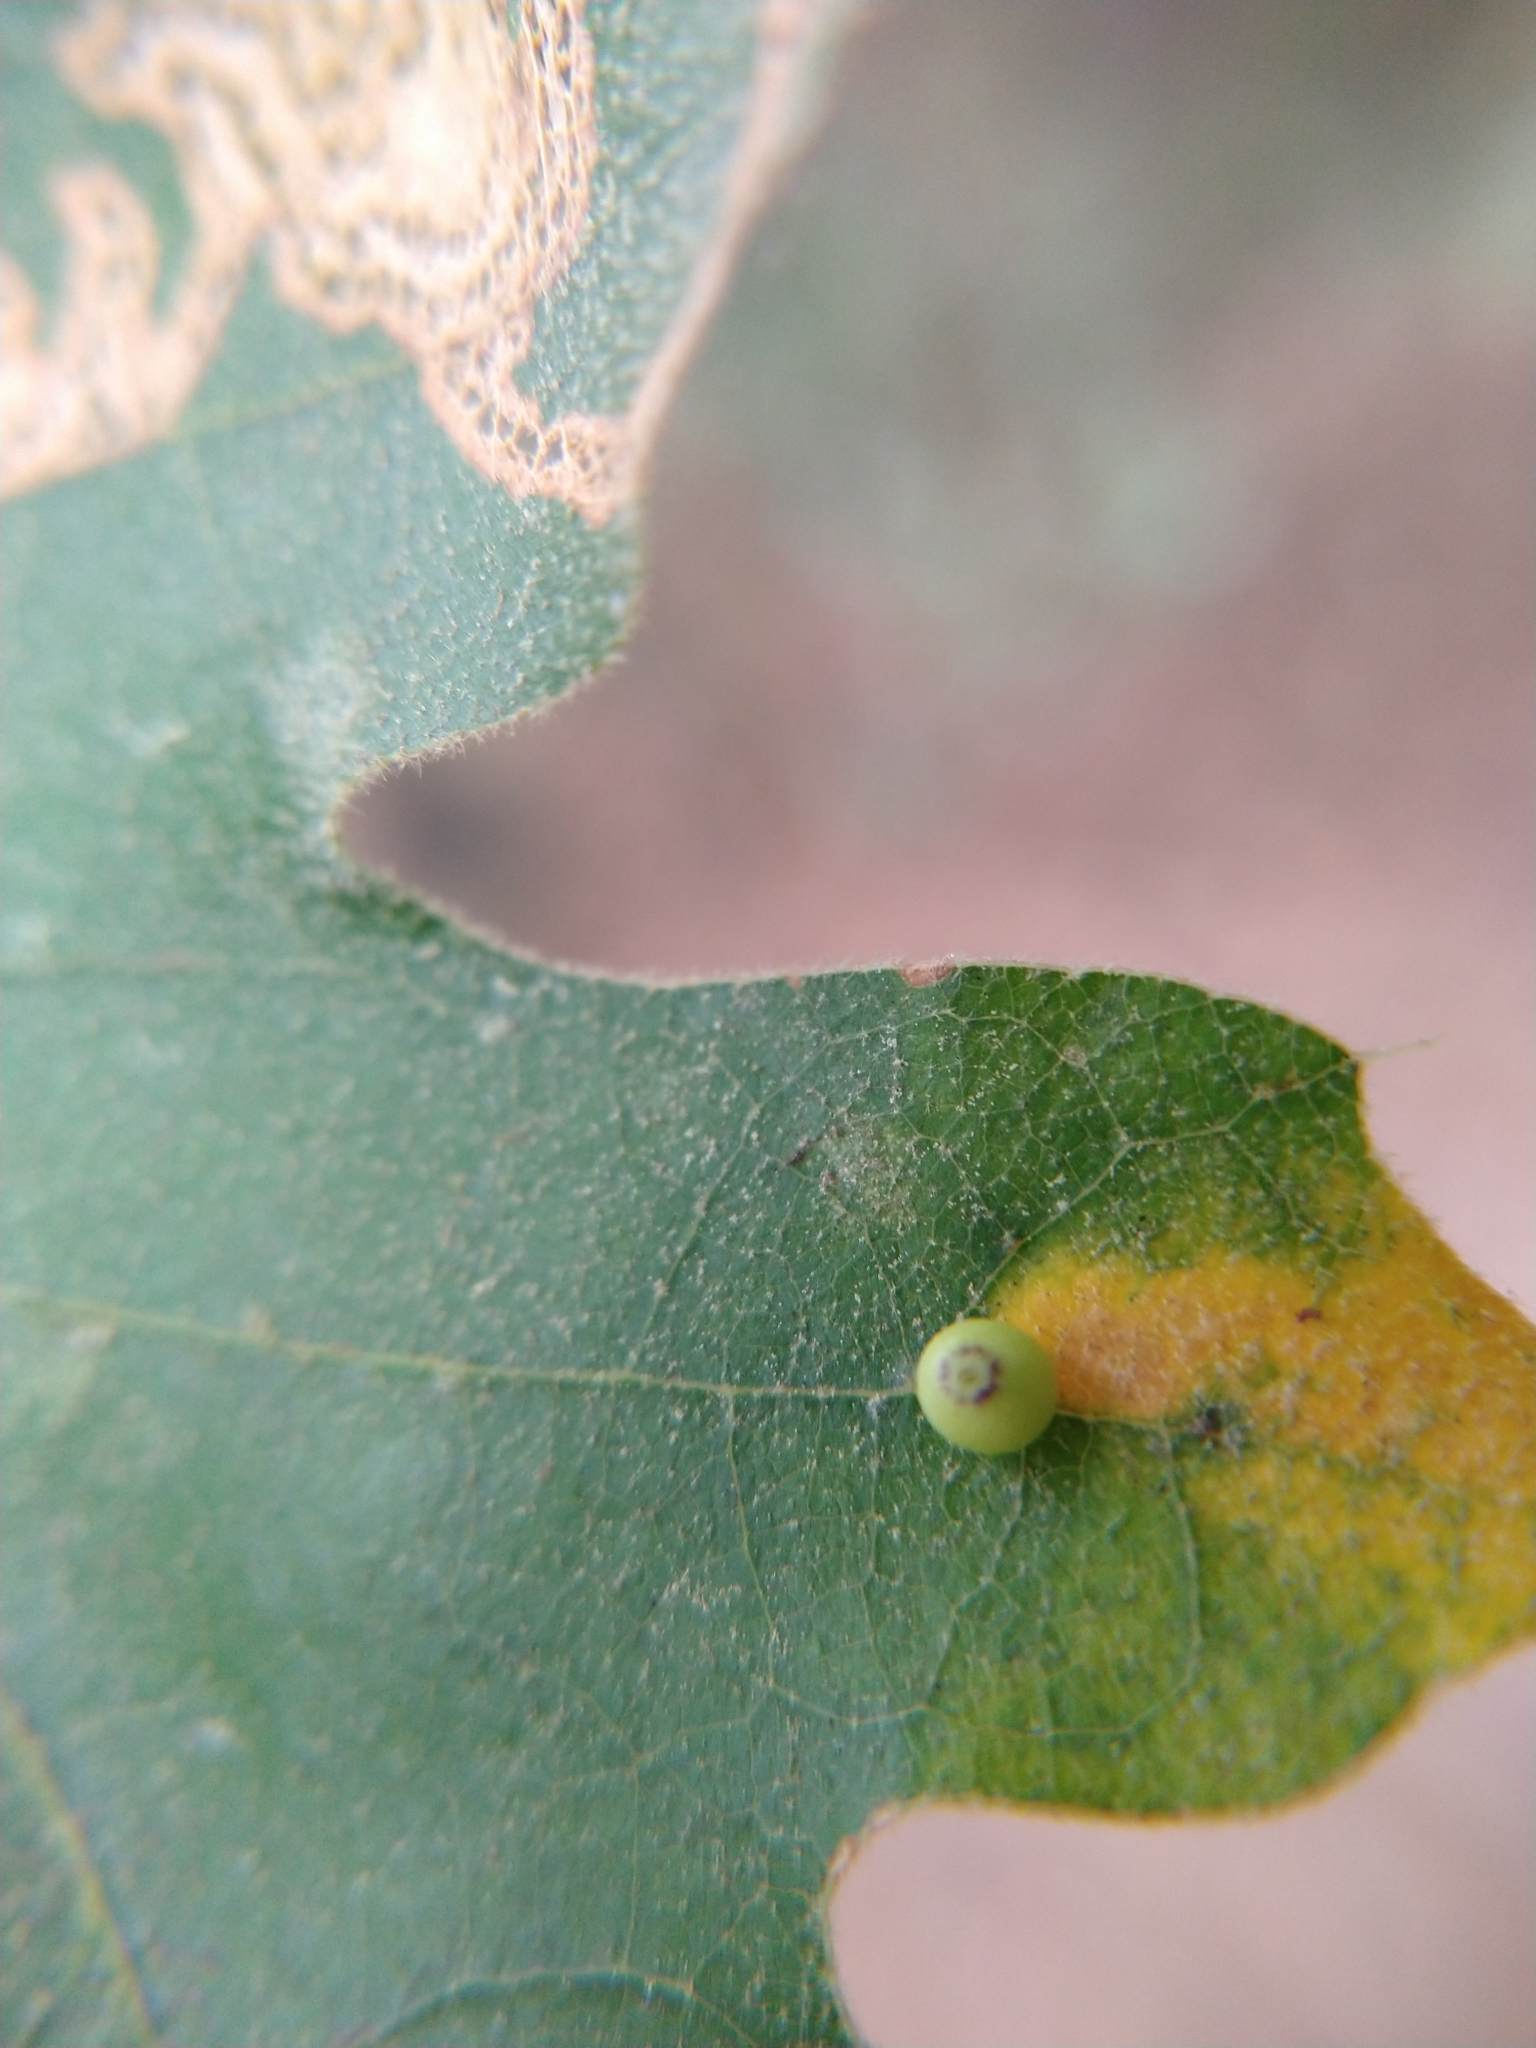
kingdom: Animalia
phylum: Arthropoda
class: Insecta
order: Hymenoptera
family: Cynipidae
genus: Dryocosmus
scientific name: Dryocosmus
